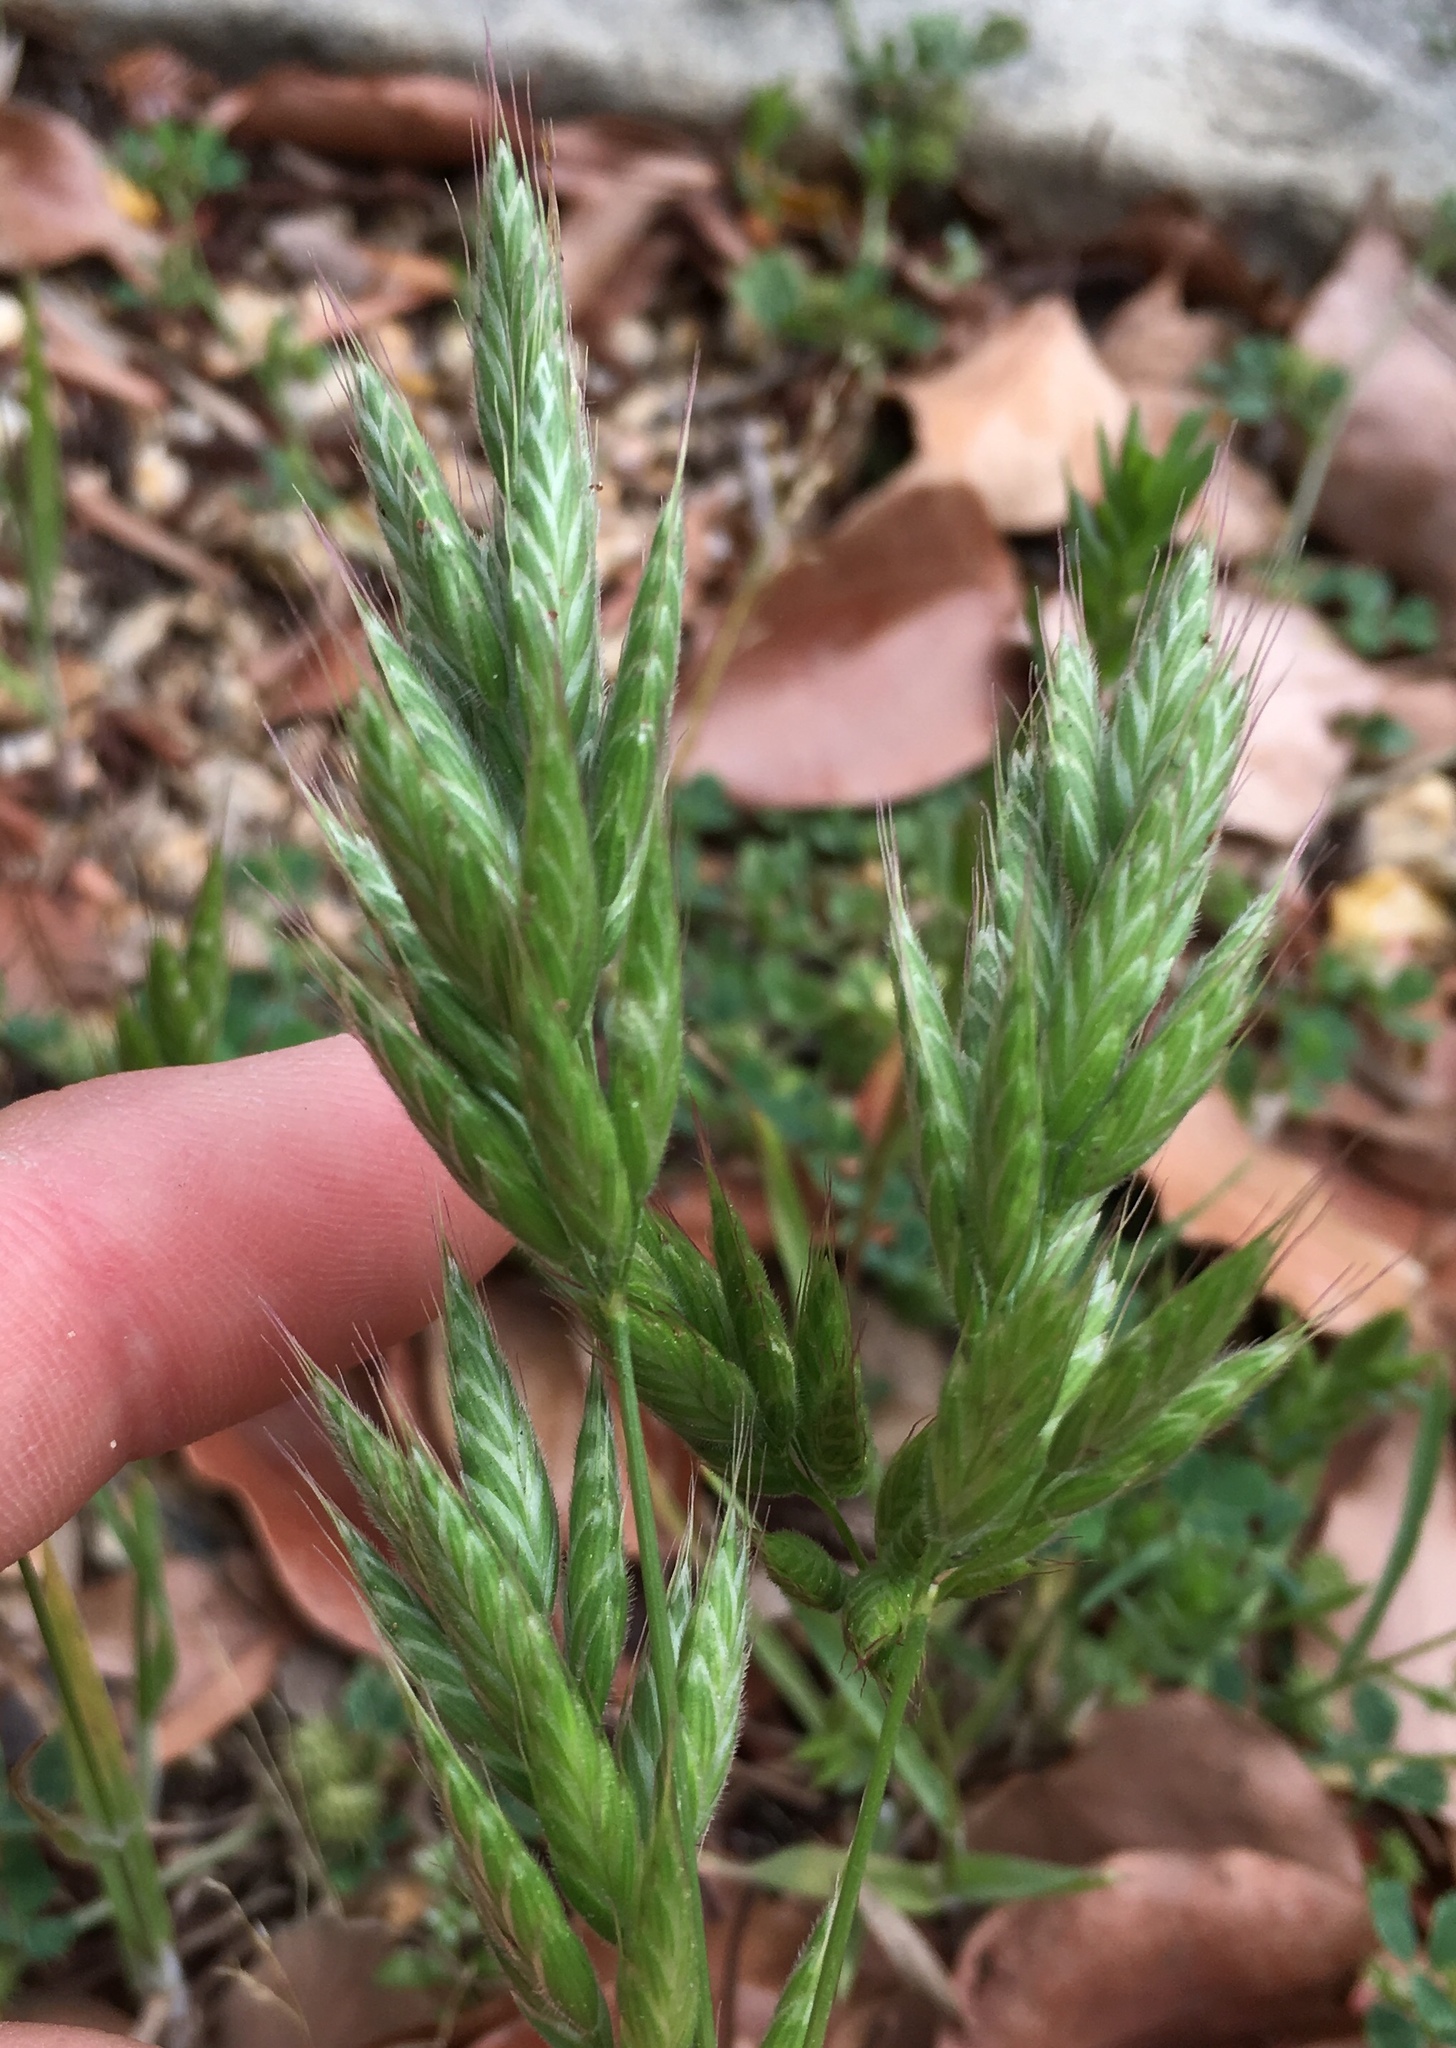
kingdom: Plantae
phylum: Tracheophyta
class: Liliopsida
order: Poales
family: Poaceae
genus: Bromus
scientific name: Bromus hordeaceus
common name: Soft brome
